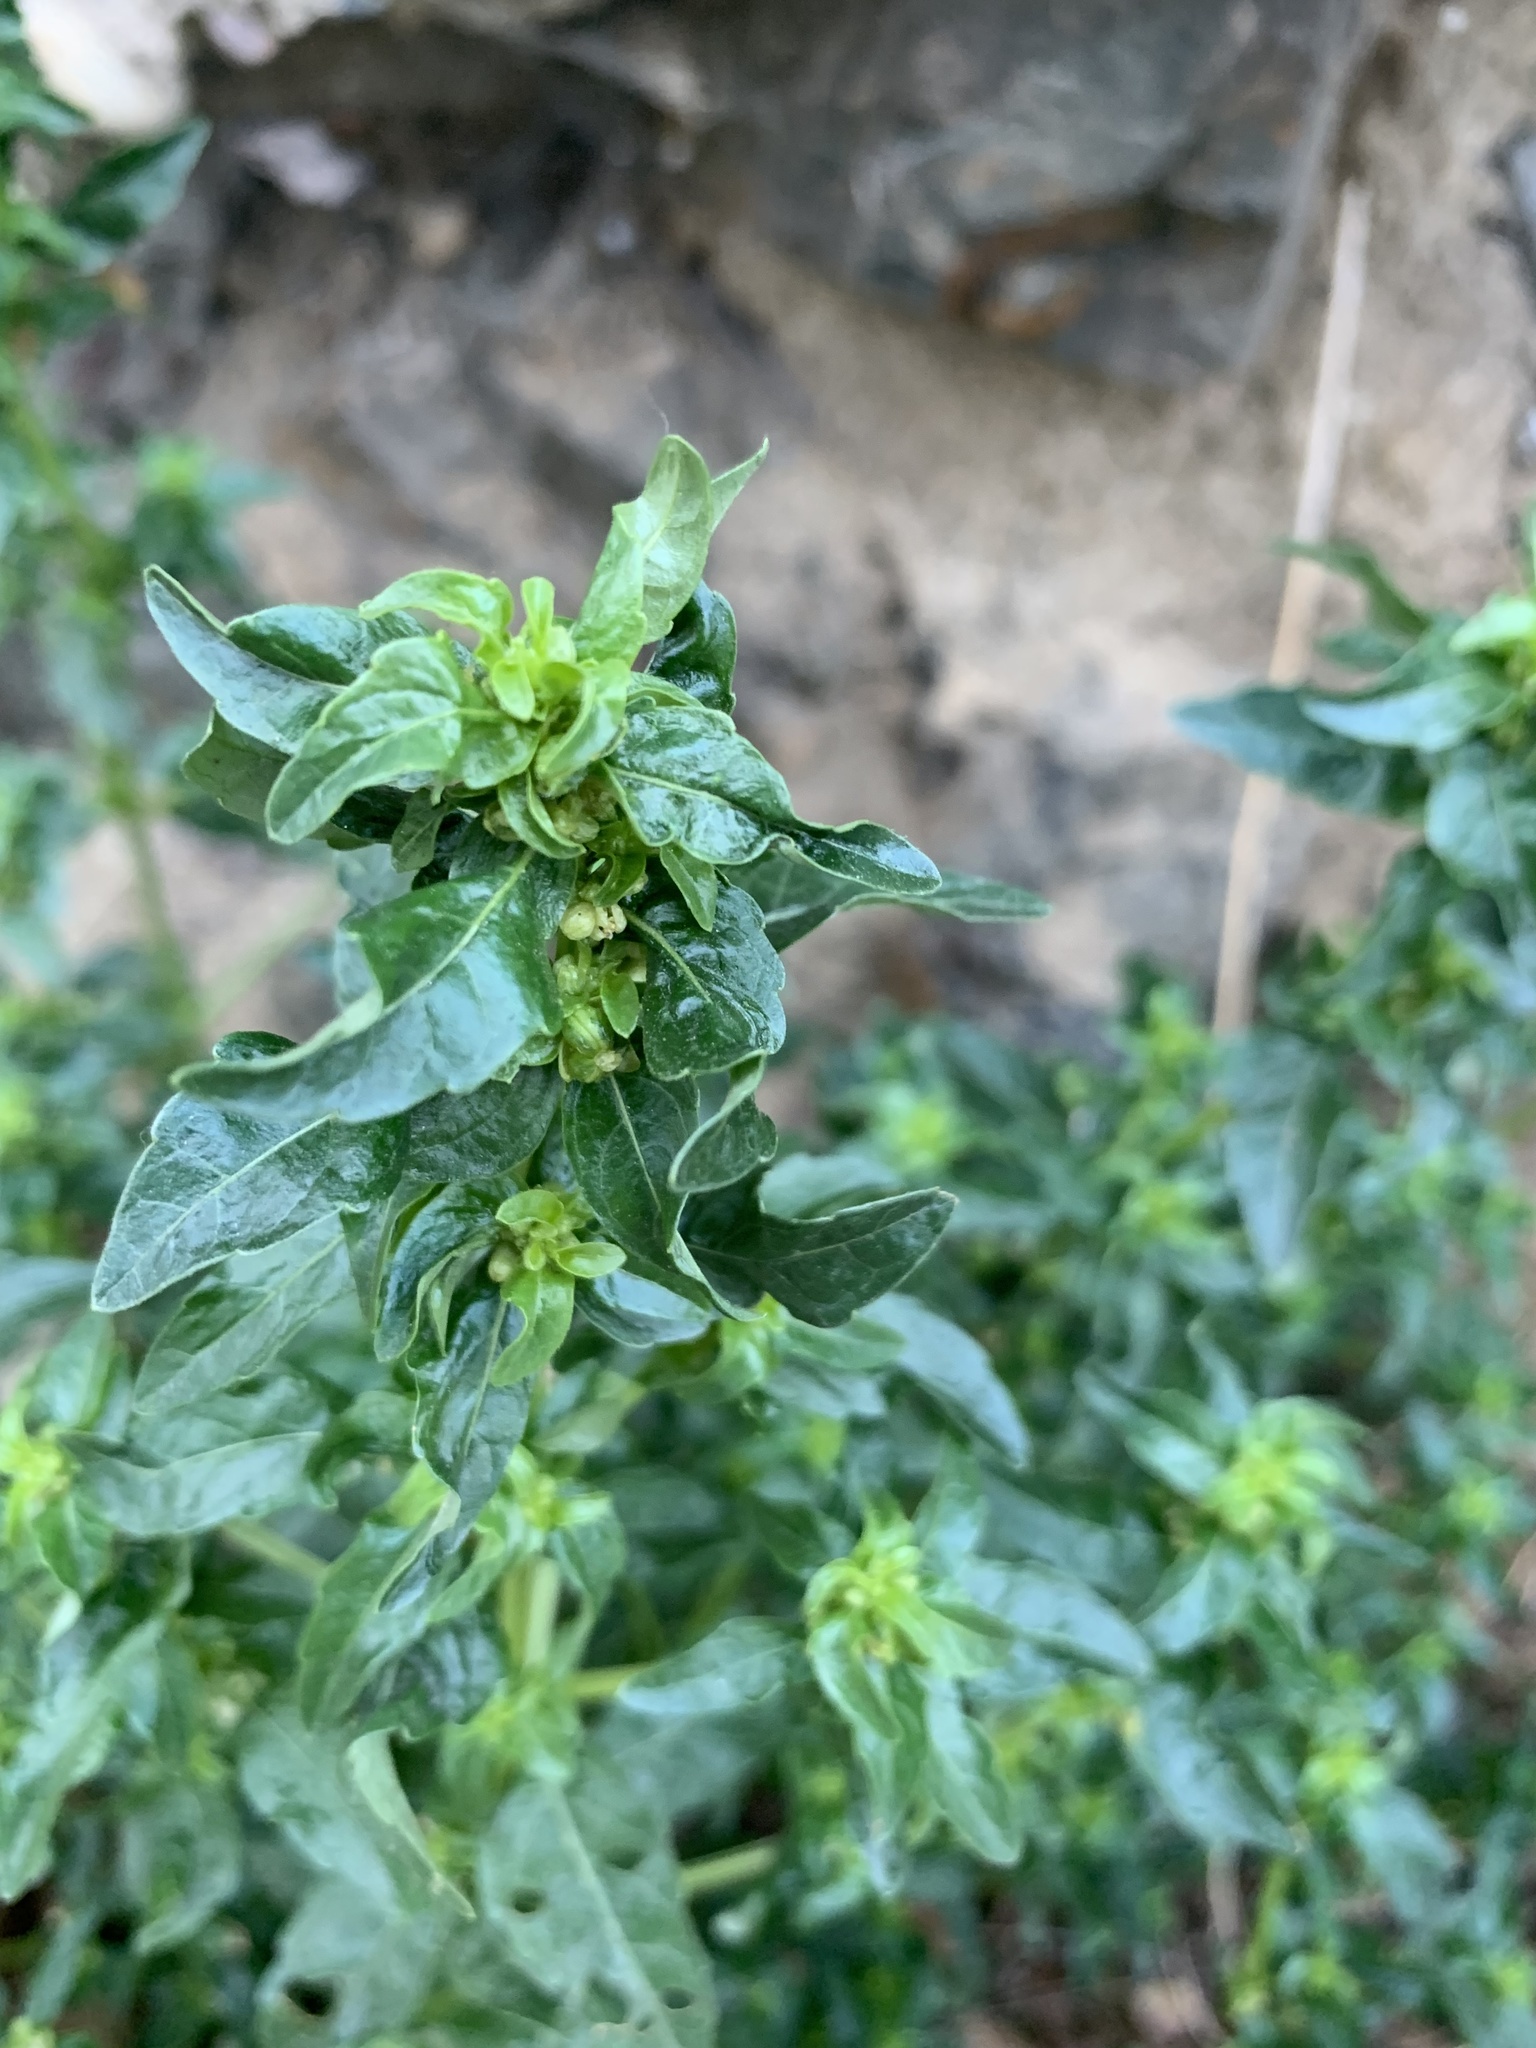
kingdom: Plantae
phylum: Tracheophyta
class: Magnoliopsida
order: Malpighiales
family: Euphorbiaceae
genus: Mercurialis
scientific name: Mercurialis annua
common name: Annual mercury
